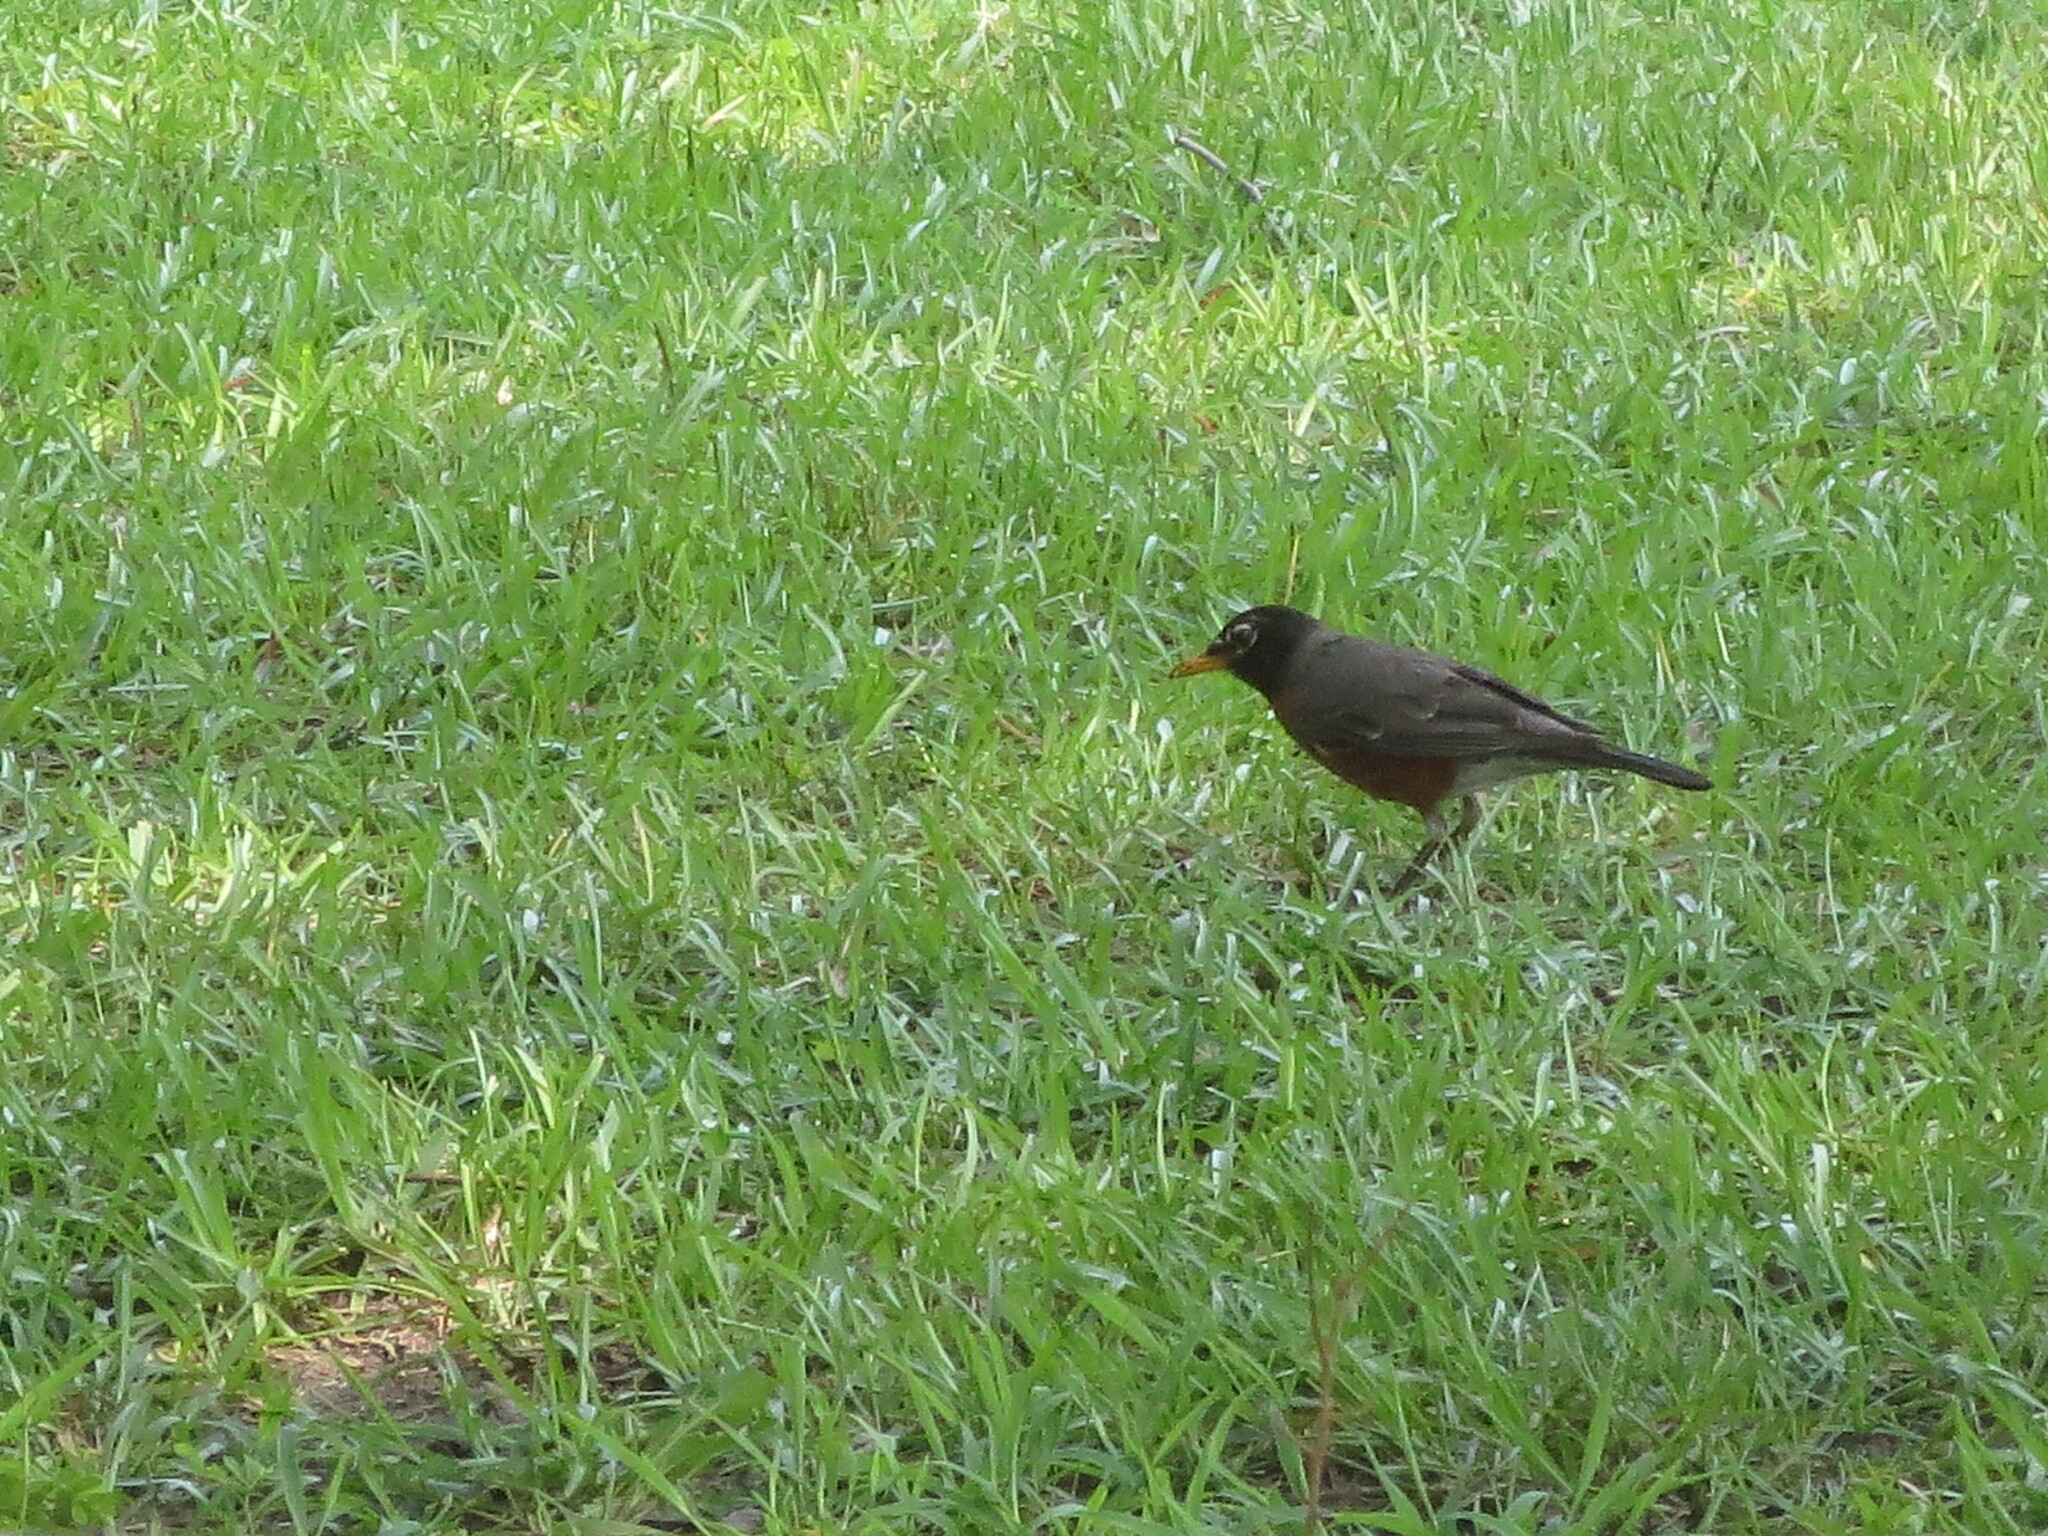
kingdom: Animalia
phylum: Chordata
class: Aves
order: Passeriformes
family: Turdidae
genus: Turdus
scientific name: Turdus migratorius
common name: American robin
